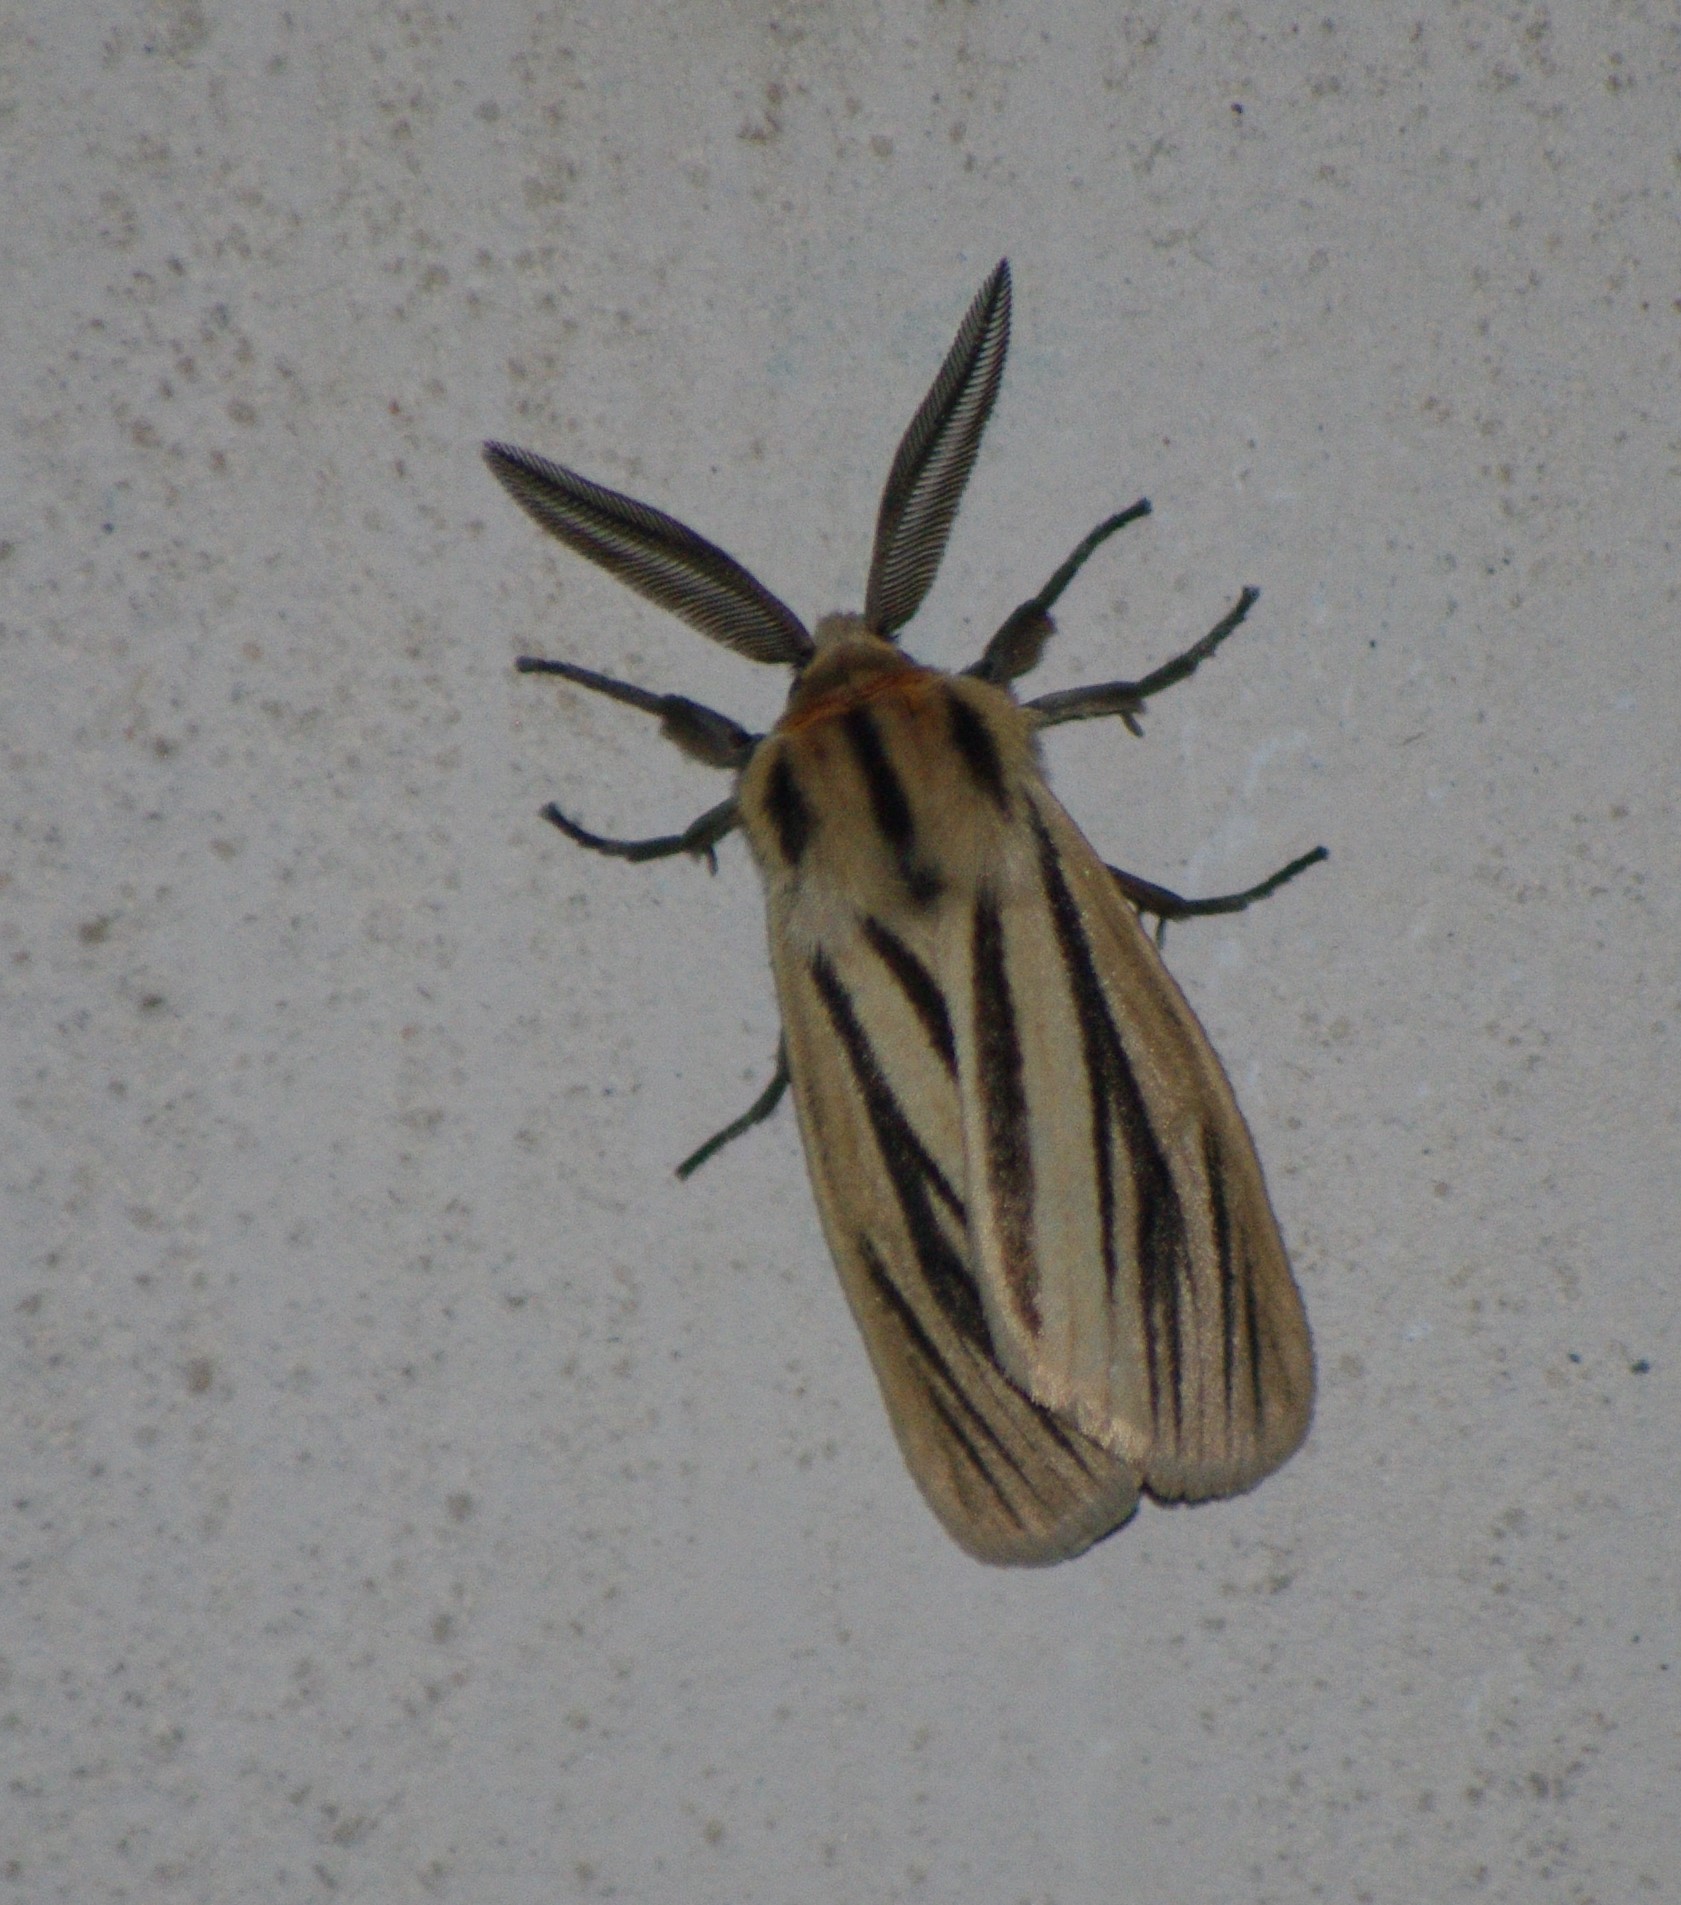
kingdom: Animalia
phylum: Arthropoda
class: Insecta
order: Lepidoptera
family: Erebidae
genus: Acantharctia
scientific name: Acantharctia latifasciata
